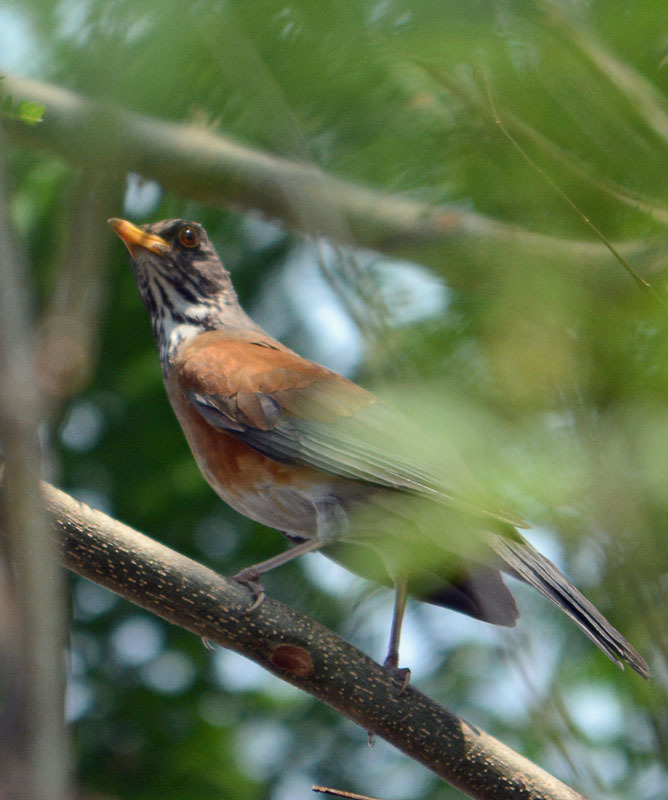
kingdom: Animalia
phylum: Chordata
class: Aves
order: Passeriformes
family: Turdidae
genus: Turdus
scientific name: Turdus rufopalliatus
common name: Rufous-backed robin
